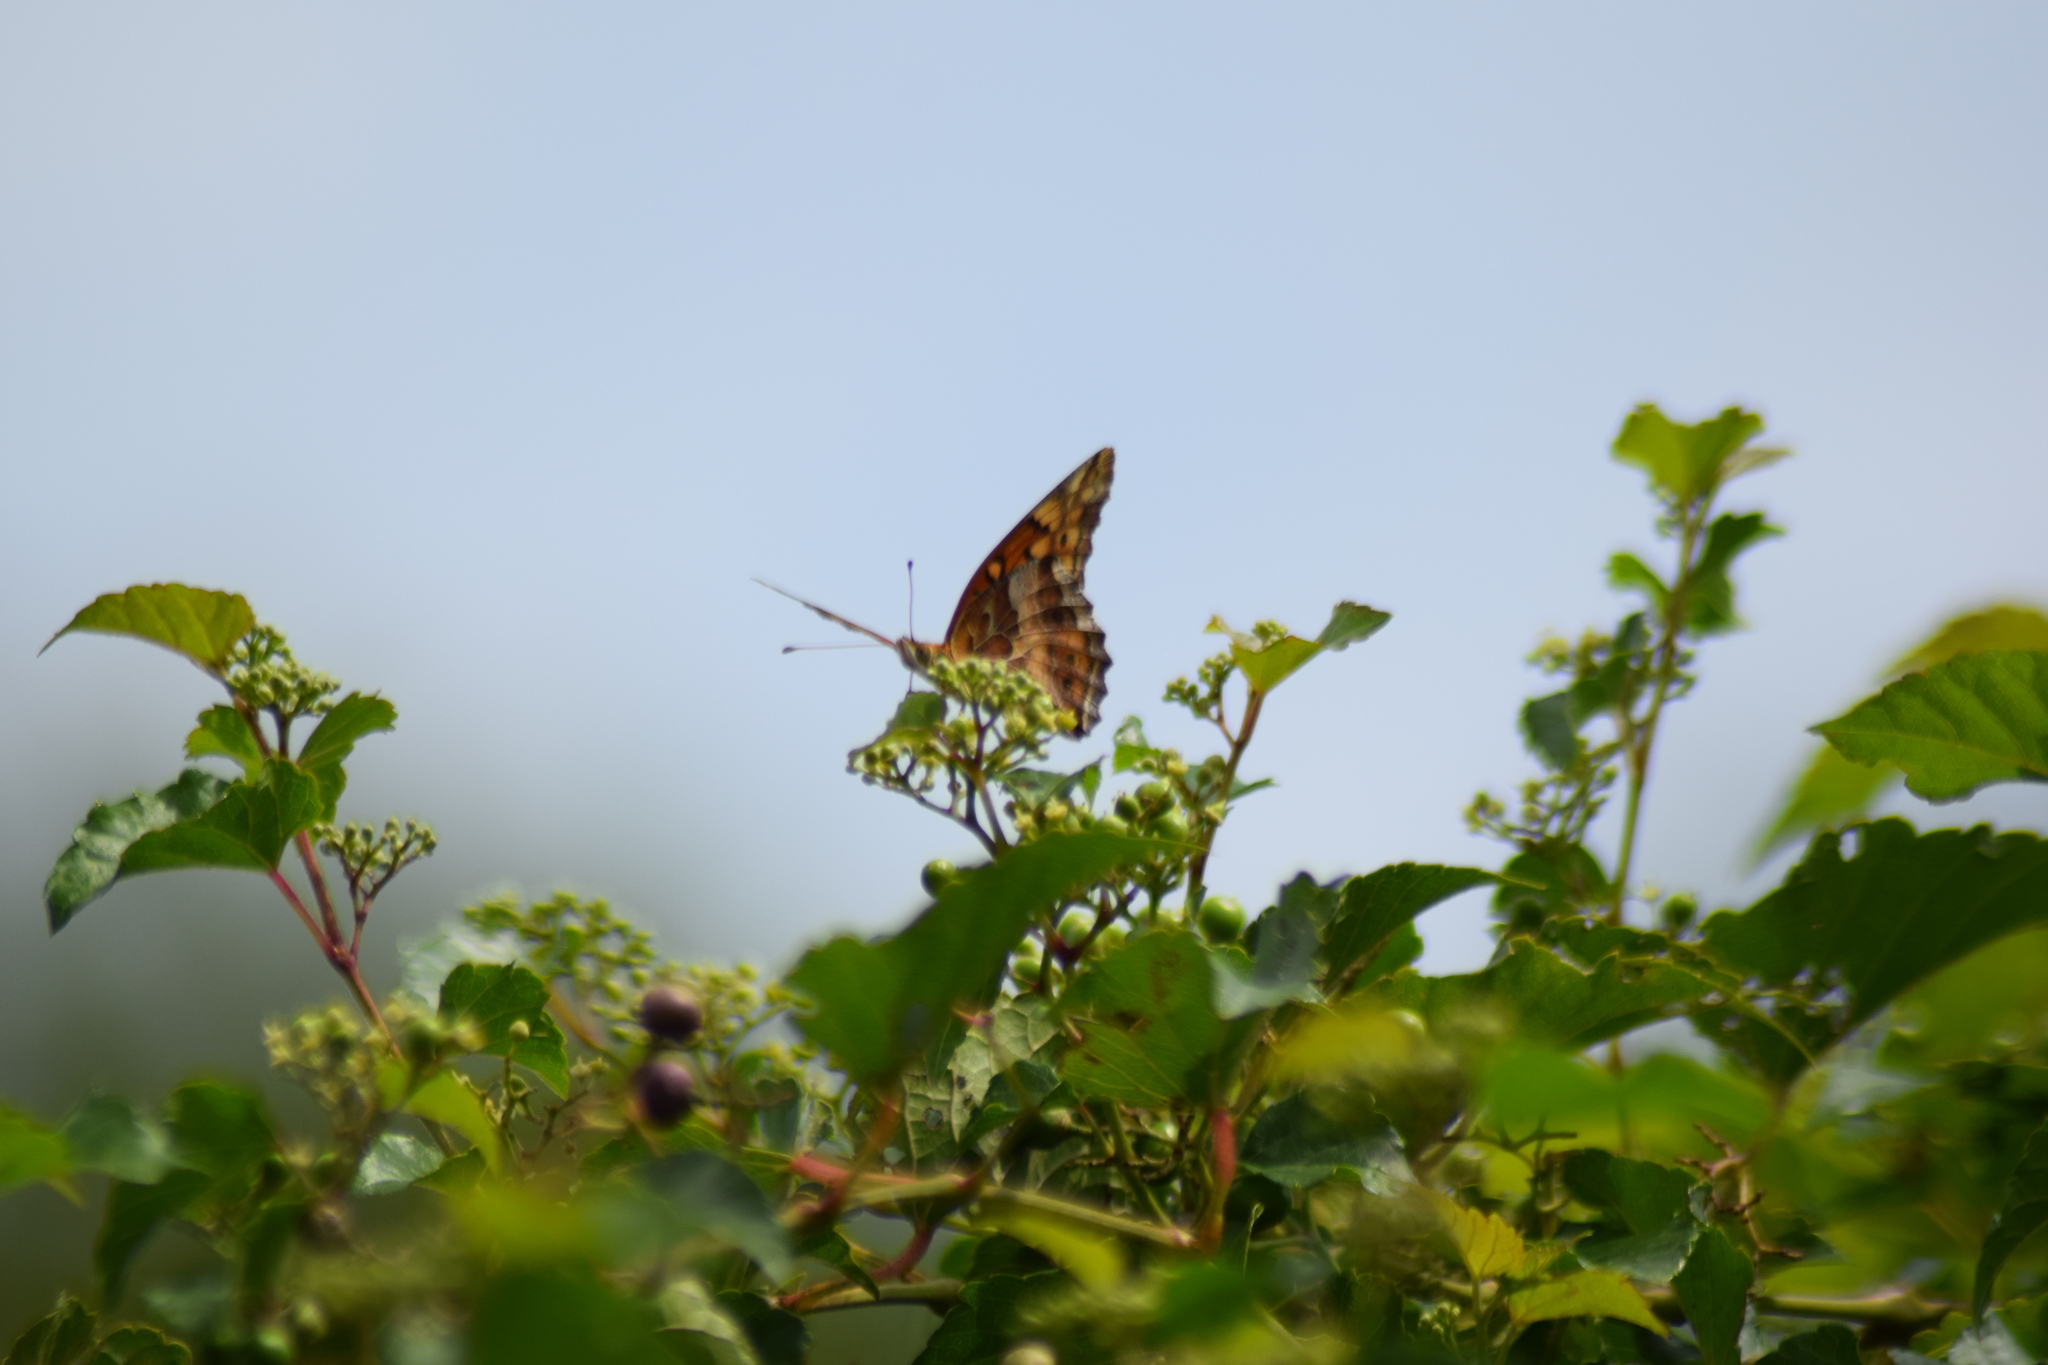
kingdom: Animalia
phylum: Arthropoda
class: Insecta
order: Lepidoptera
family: Nymphalidae
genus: Euptoieta
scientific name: Euptoieta claudia
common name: Variegated fritillary
